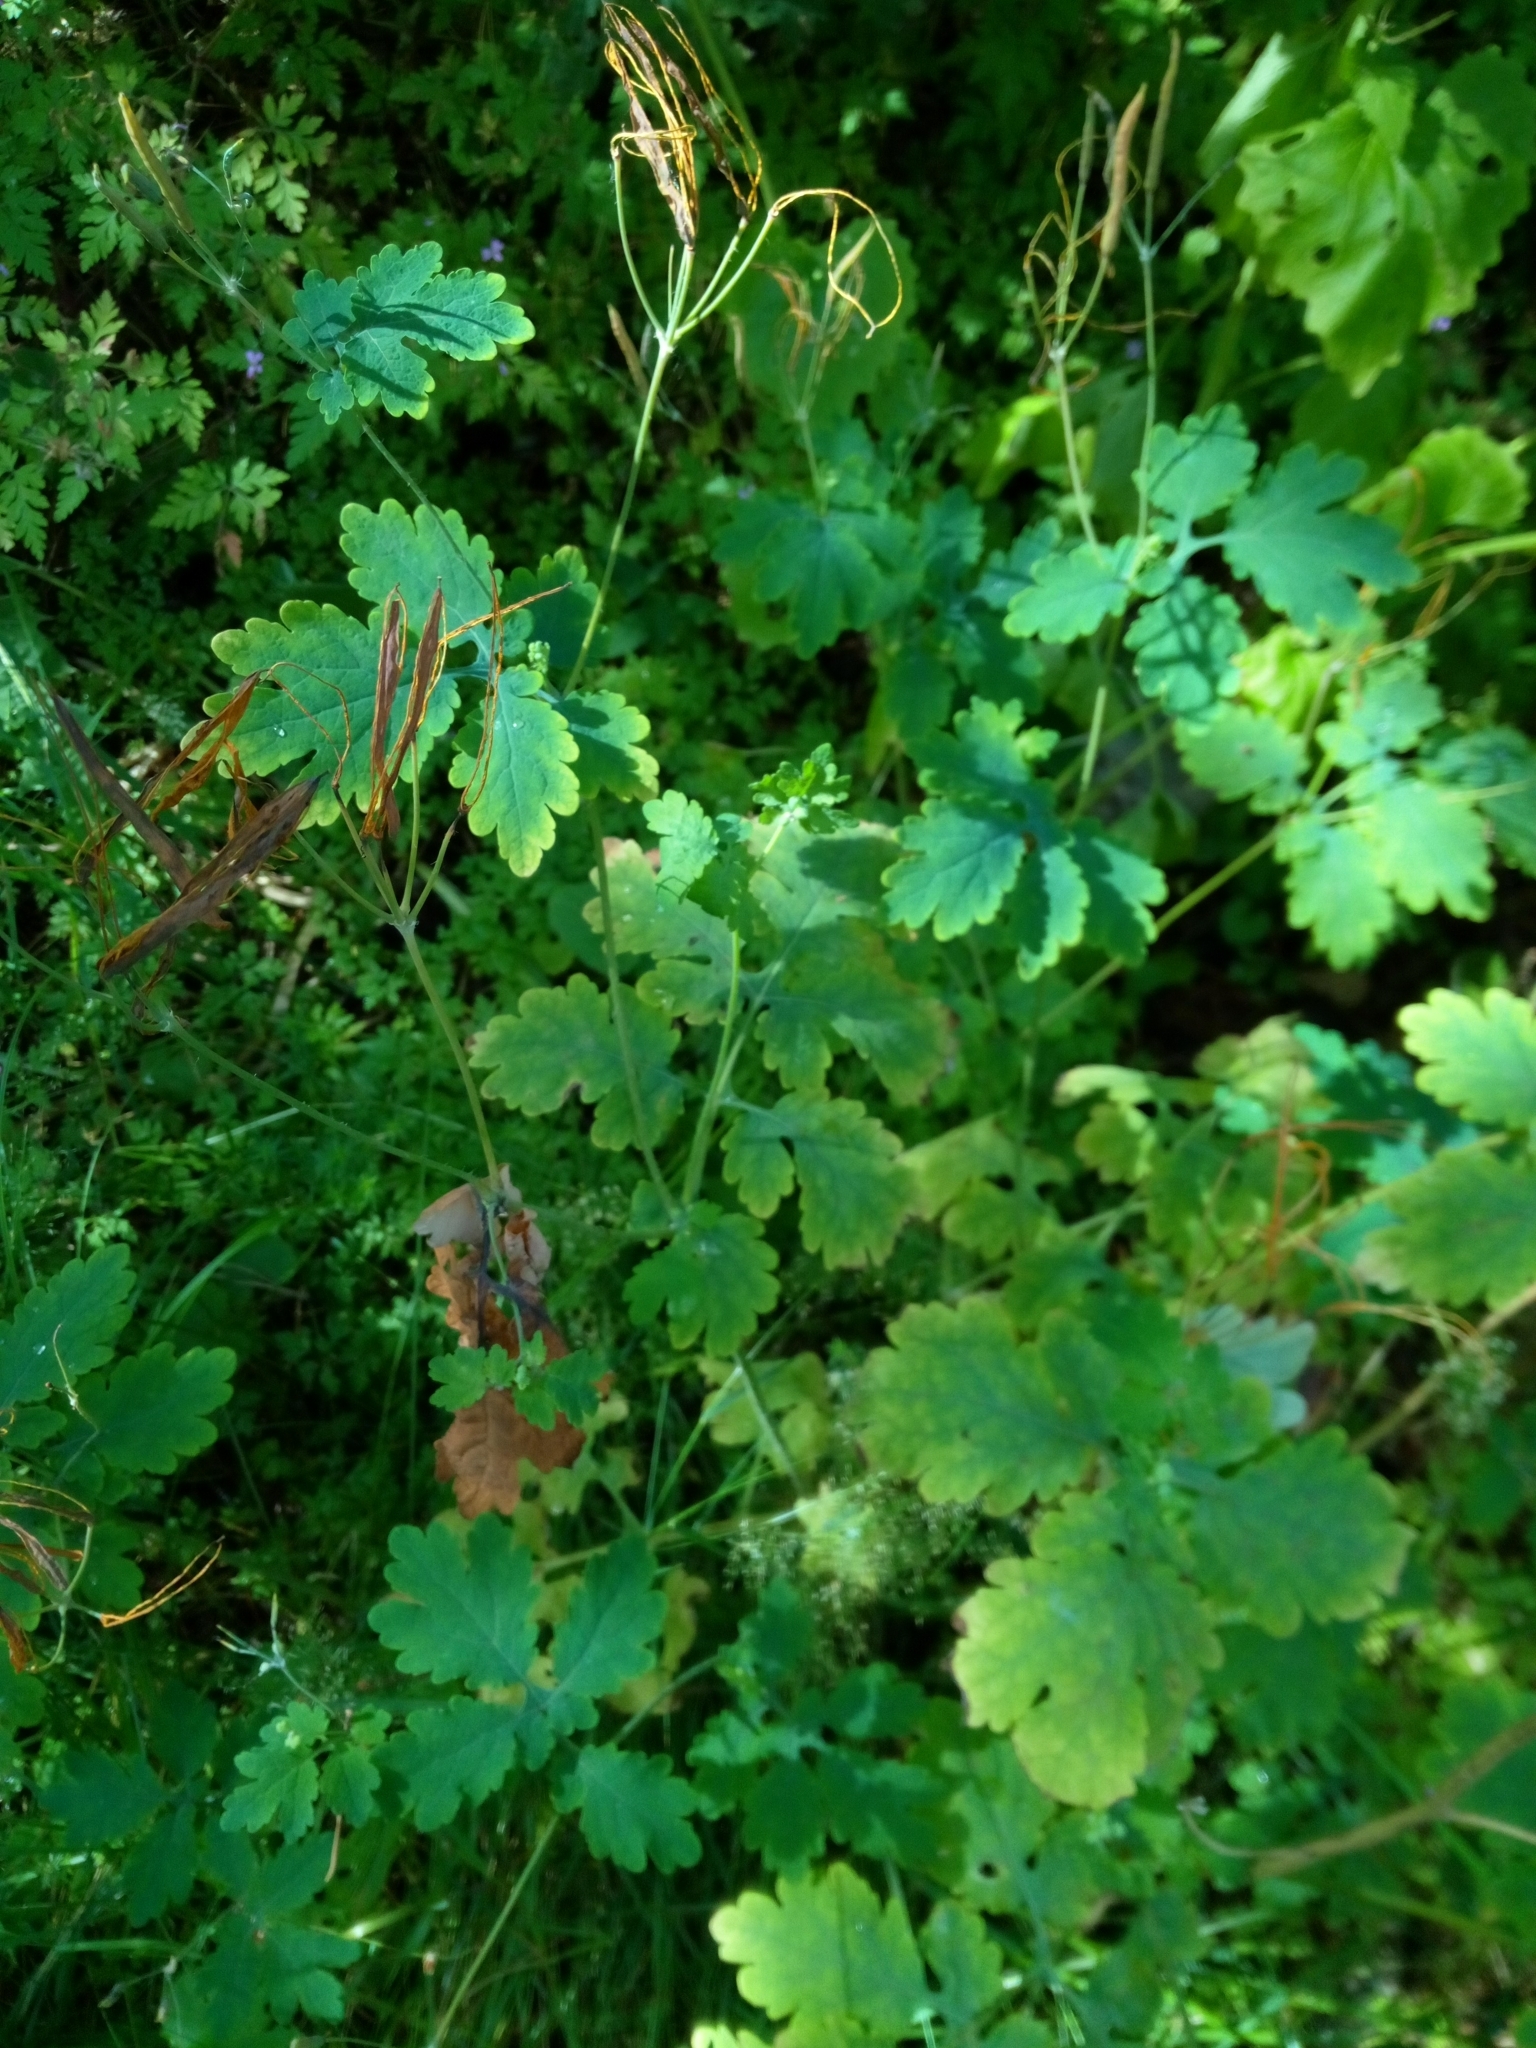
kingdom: Plantae
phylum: Tracheophyta
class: Magnoliopsida
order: Ranunculales
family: Papaveraceae
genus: Chelidonium
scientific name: Chelidonium majus
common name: Greater celandine
